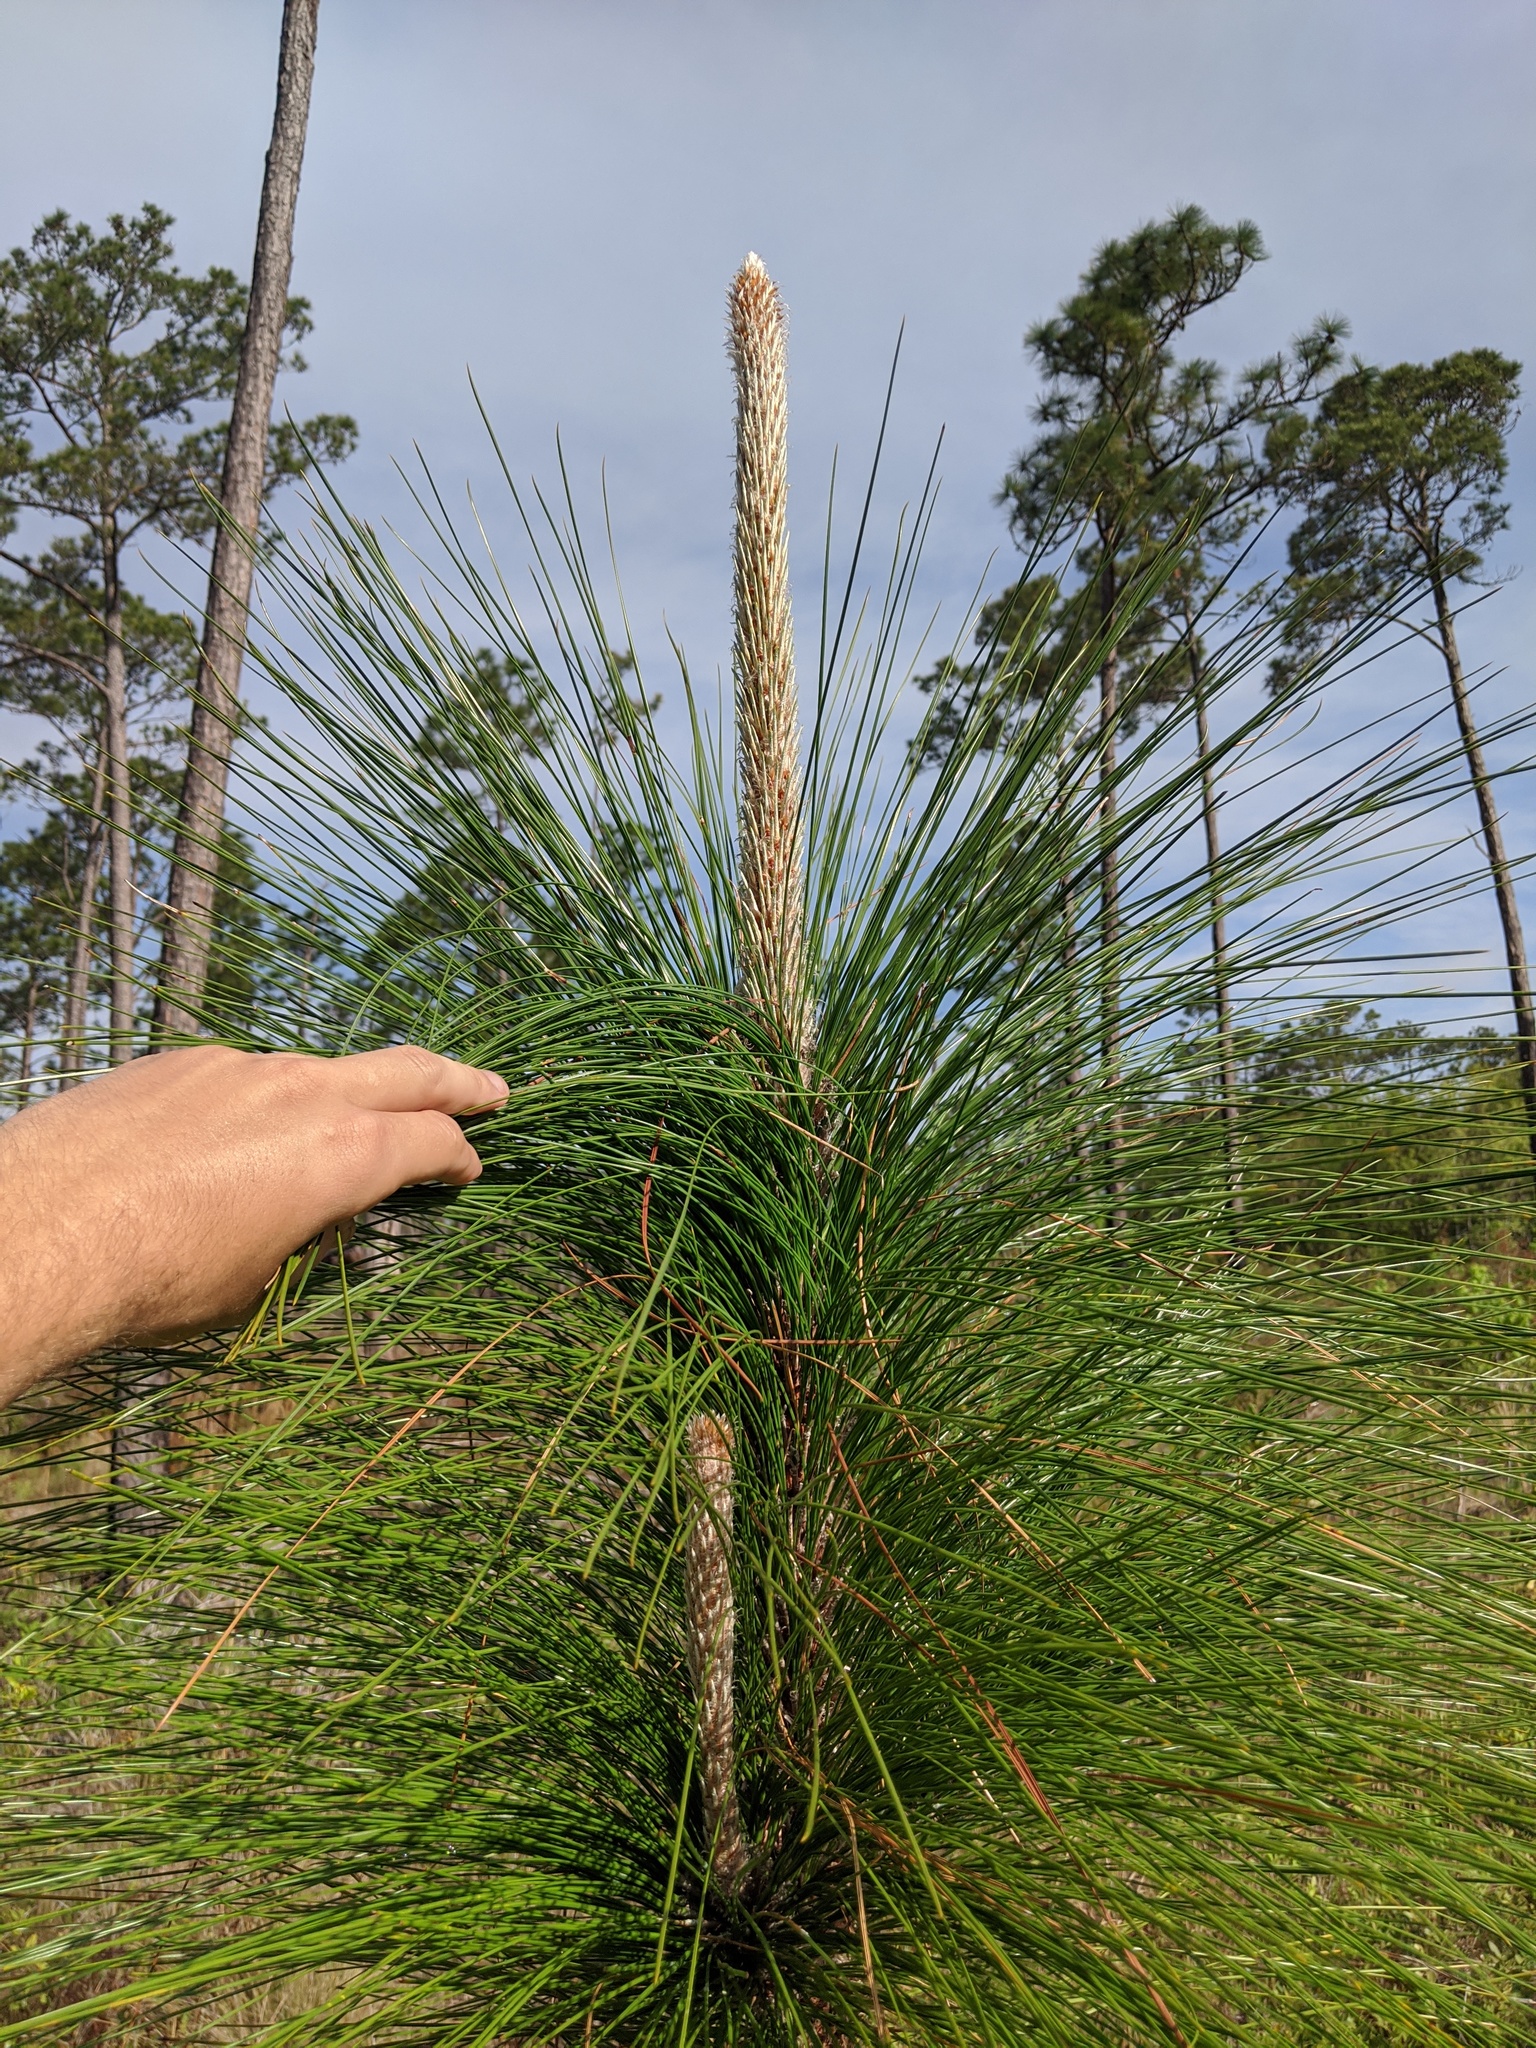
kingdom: Plantae
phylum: Tracheophyta
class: Pinopsida
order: Pinales
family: Pinaceae
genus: Pinus
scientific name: Pinus palustris
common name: Longleaf pine
